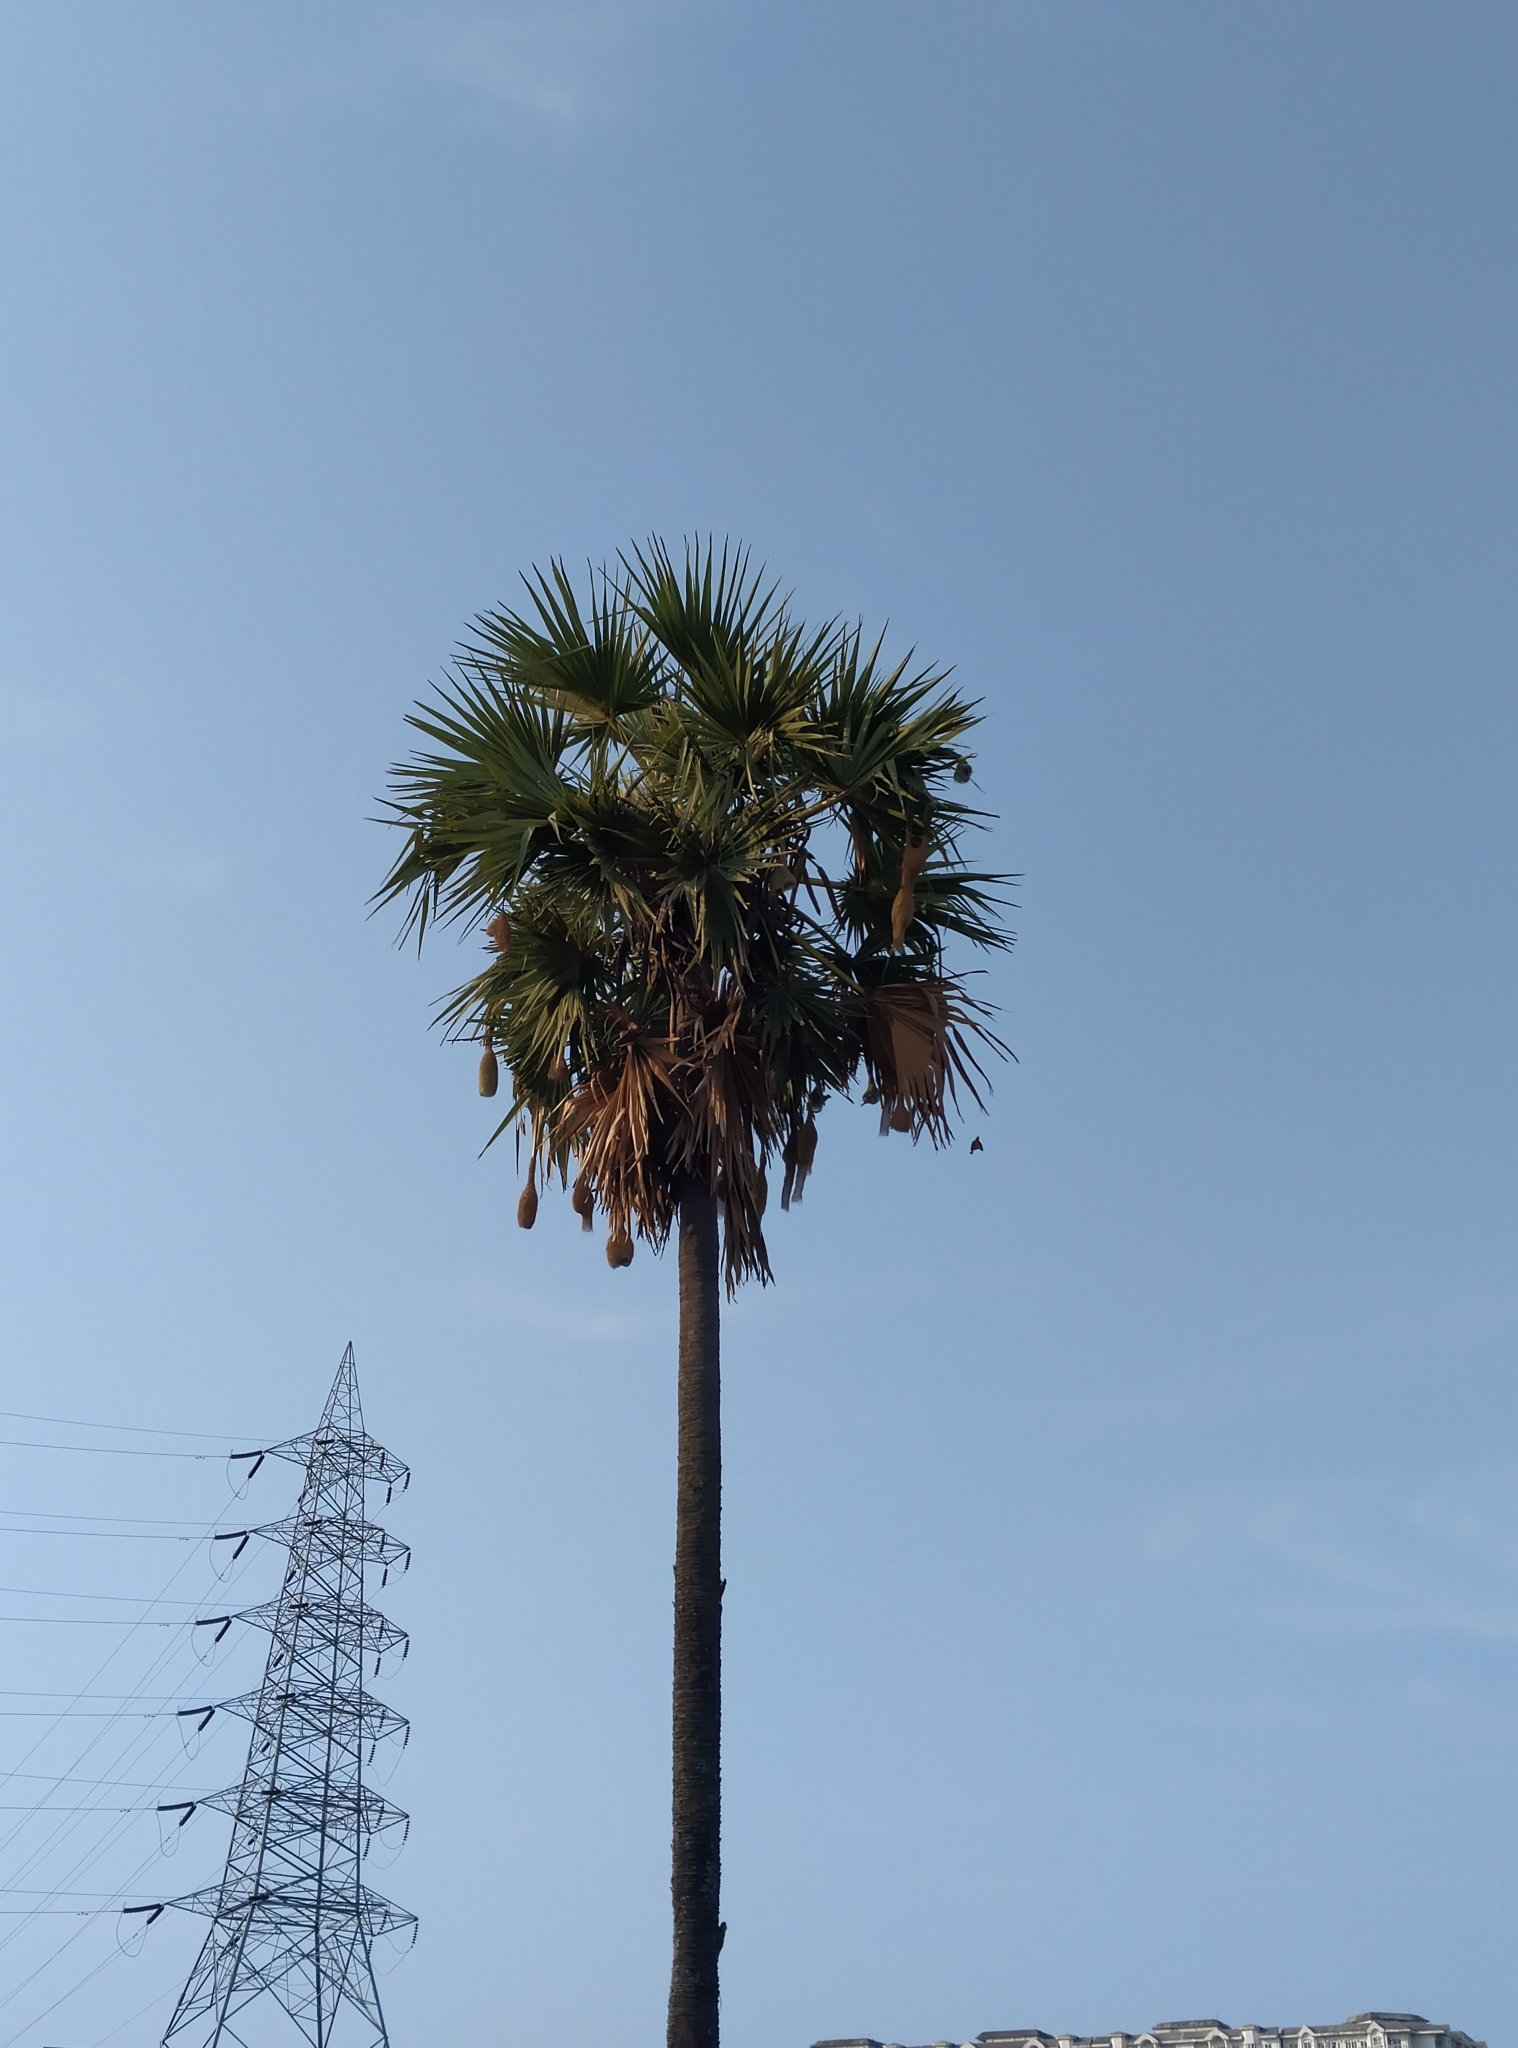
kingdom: Animalia
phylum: Chordata
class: Aves
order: Passeriformes
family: Ploceidae
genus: Ploceus
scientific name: Ploceus philippinus
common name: Baya weaver
